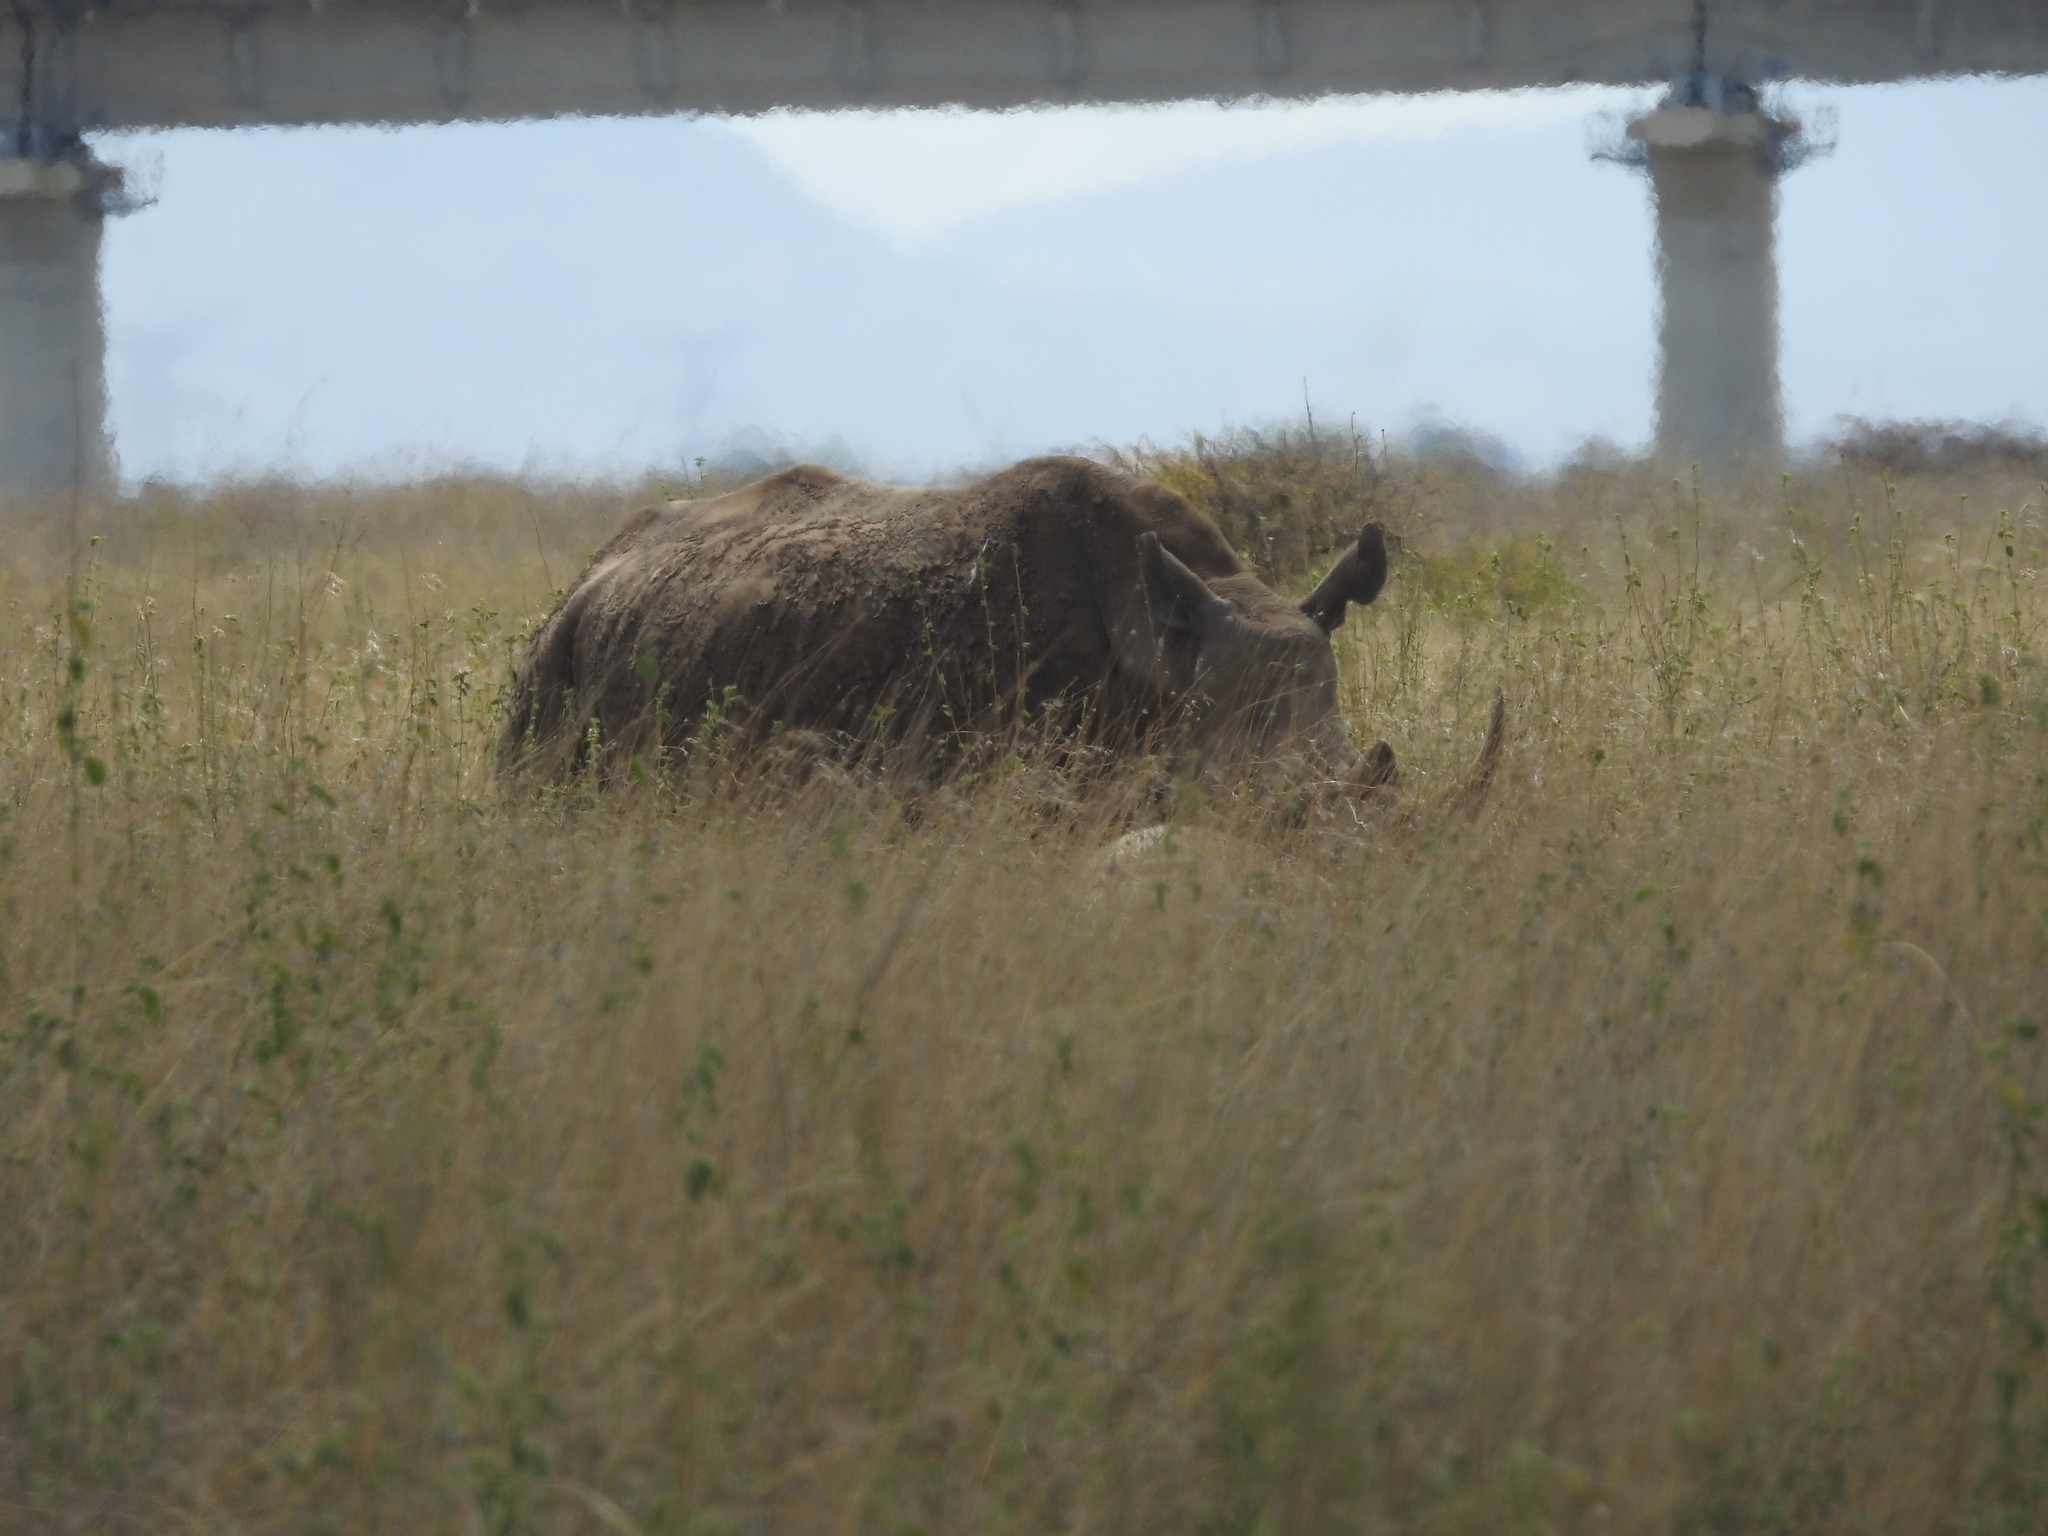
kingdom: Animalia
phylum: Chordata
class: Mammalia
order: Perissodactyla
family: Rhinocerotidae
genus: Ceratotherium
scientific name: Ceratotherium simum
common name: White rhinoceros
